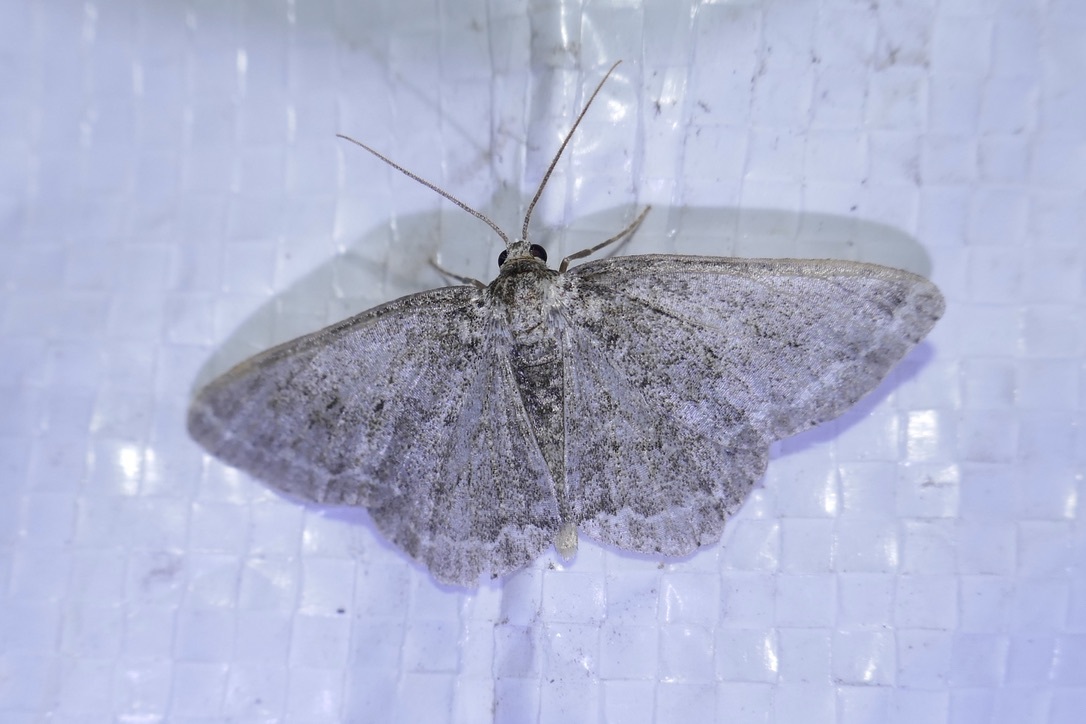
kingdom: Animalia
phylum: Arthropoda
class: Insecta
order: Lepidoptera
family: Geometridae
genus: Ectropis
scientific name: Ectropis crepuscularia
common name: Engrailed
